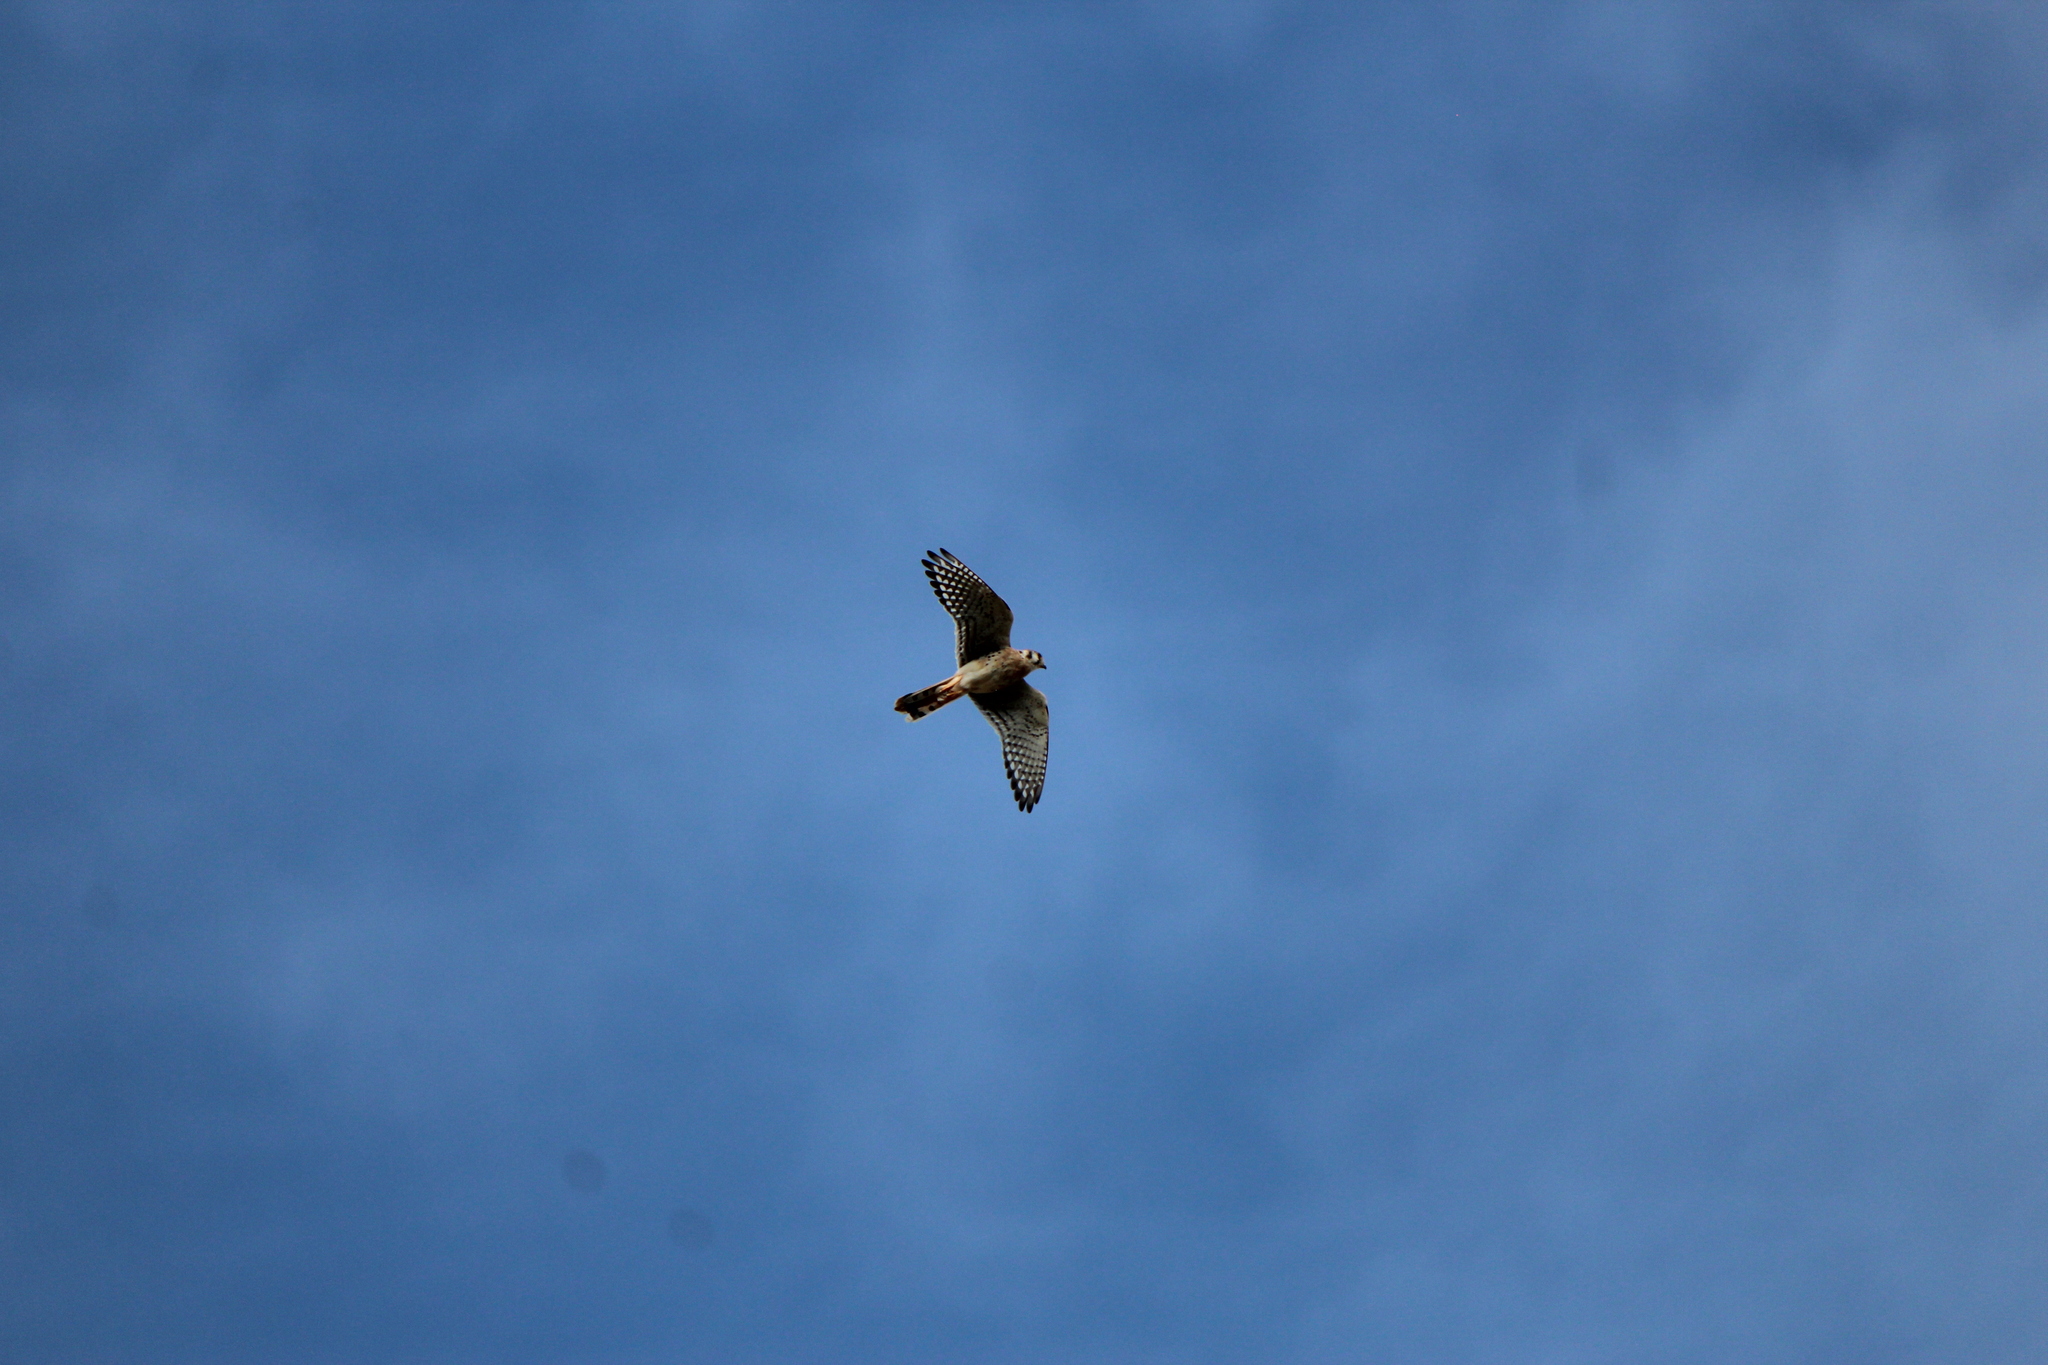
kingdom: Animalia
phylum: Chordata
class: Aves
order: Falconiformes
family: Falconidae
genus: Falco
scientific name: Falco sparverius
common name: American kestrel
